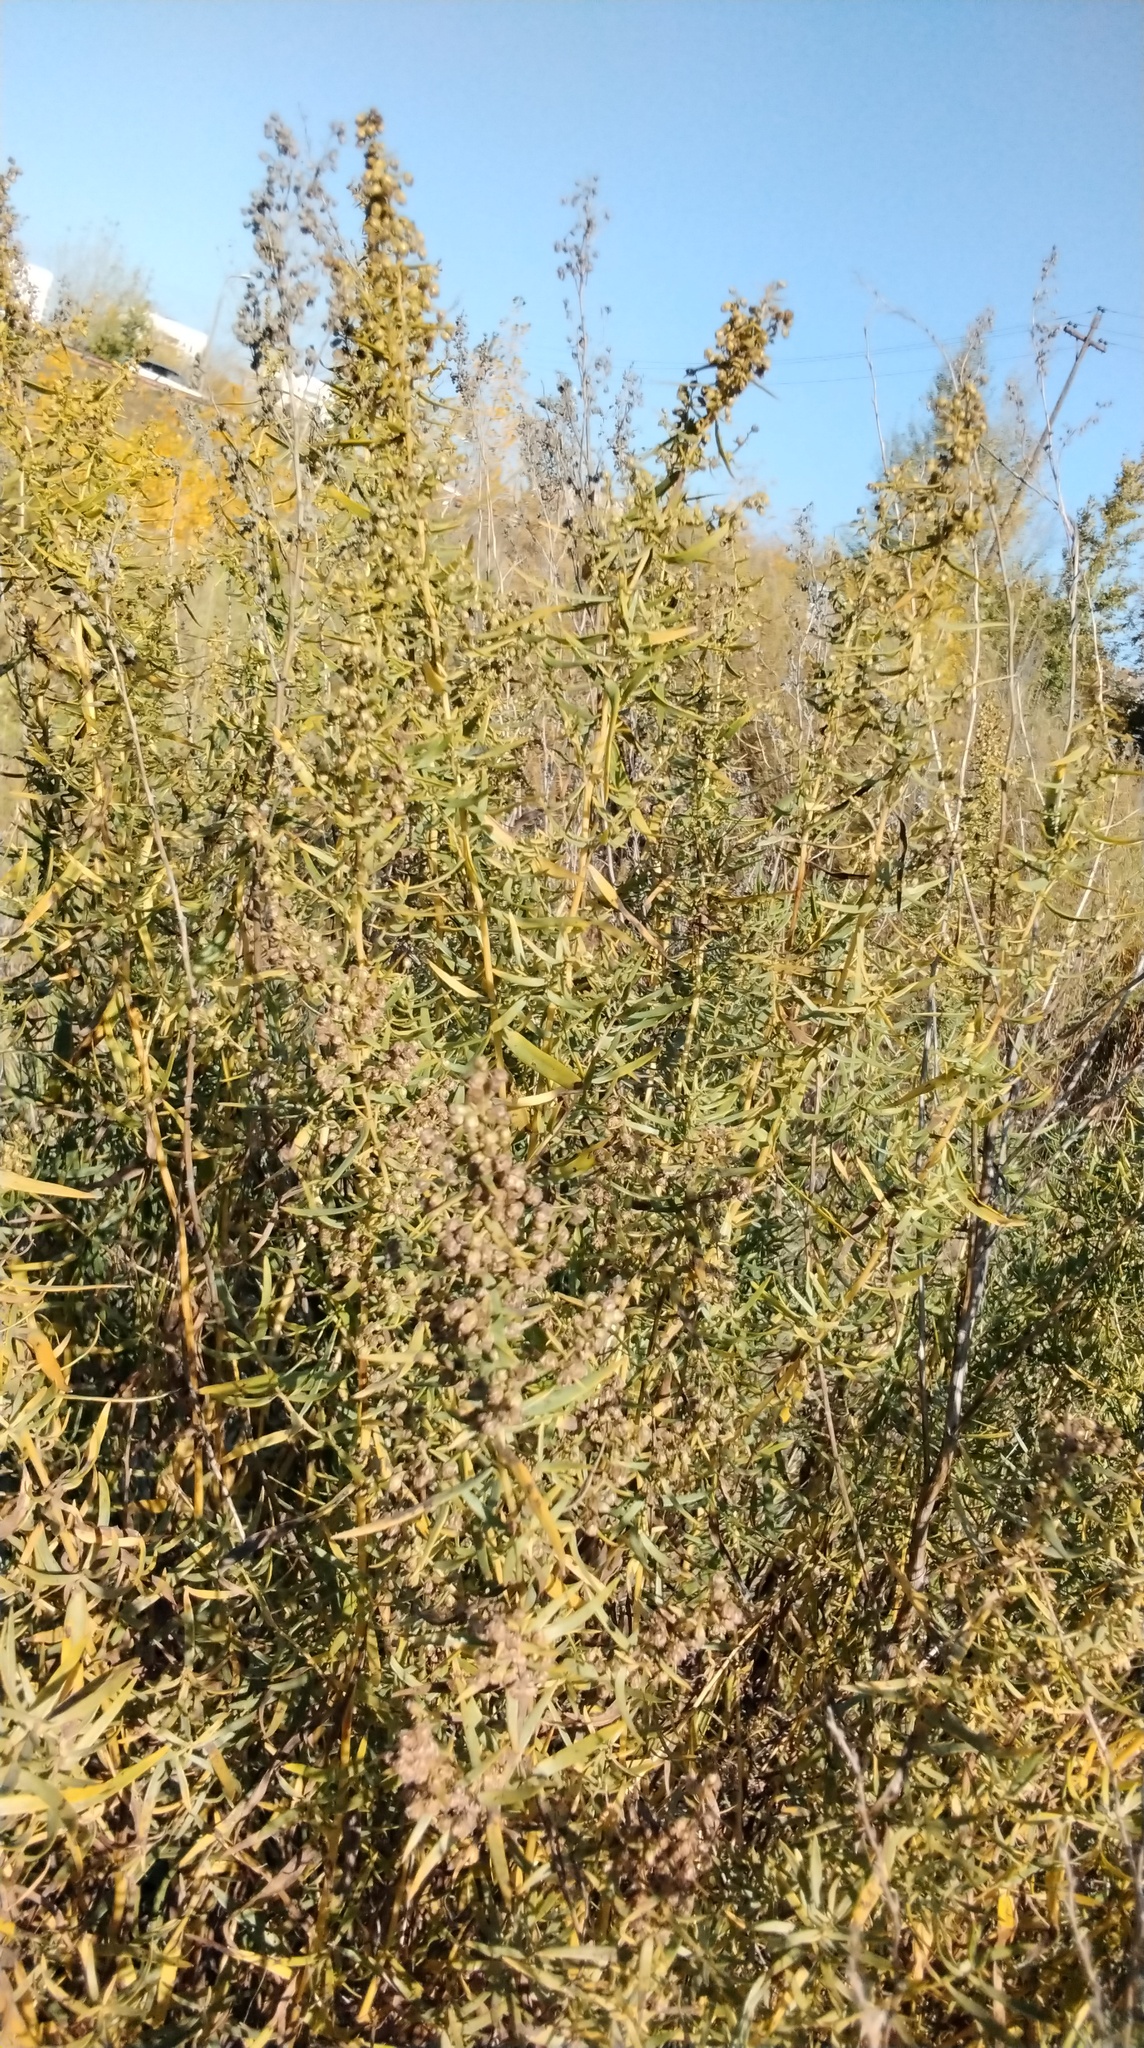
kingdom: Plantae
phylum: Tracheophyta
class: Magnoliopsida
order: Asterales
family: Asteraceae
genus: Artemisia
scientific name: Artemisia dracunculus
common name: Tarragon
